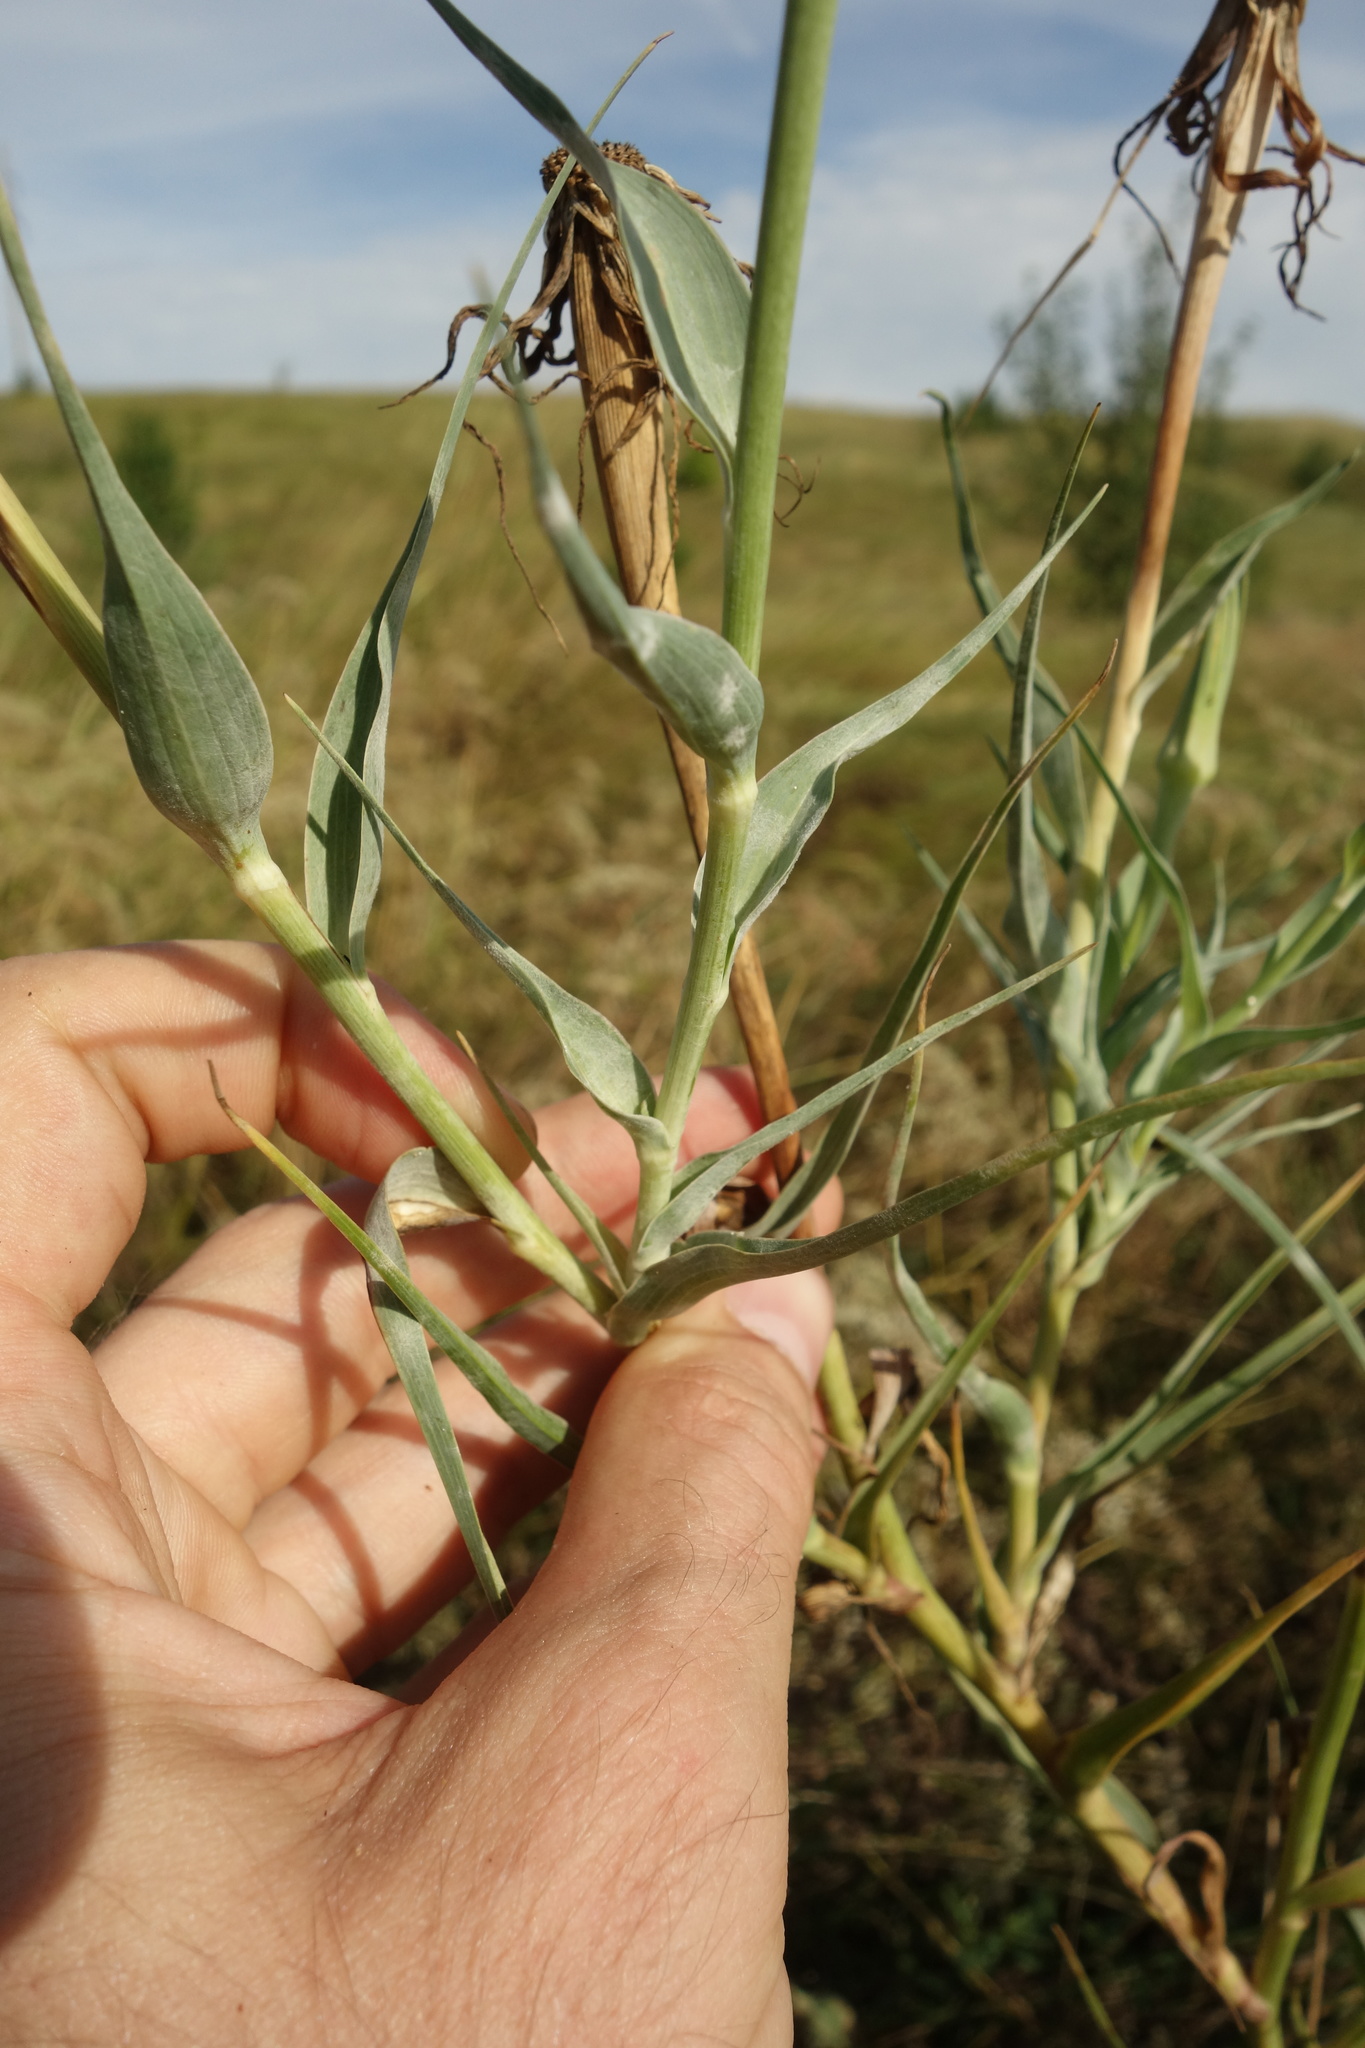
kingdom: Plantae
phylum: Tracheophyta
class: Magnoliopsida
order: Asterales
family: Asteraceae
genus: Tragopogon
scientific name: Tragopogon dubius
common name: Yellow salsify
